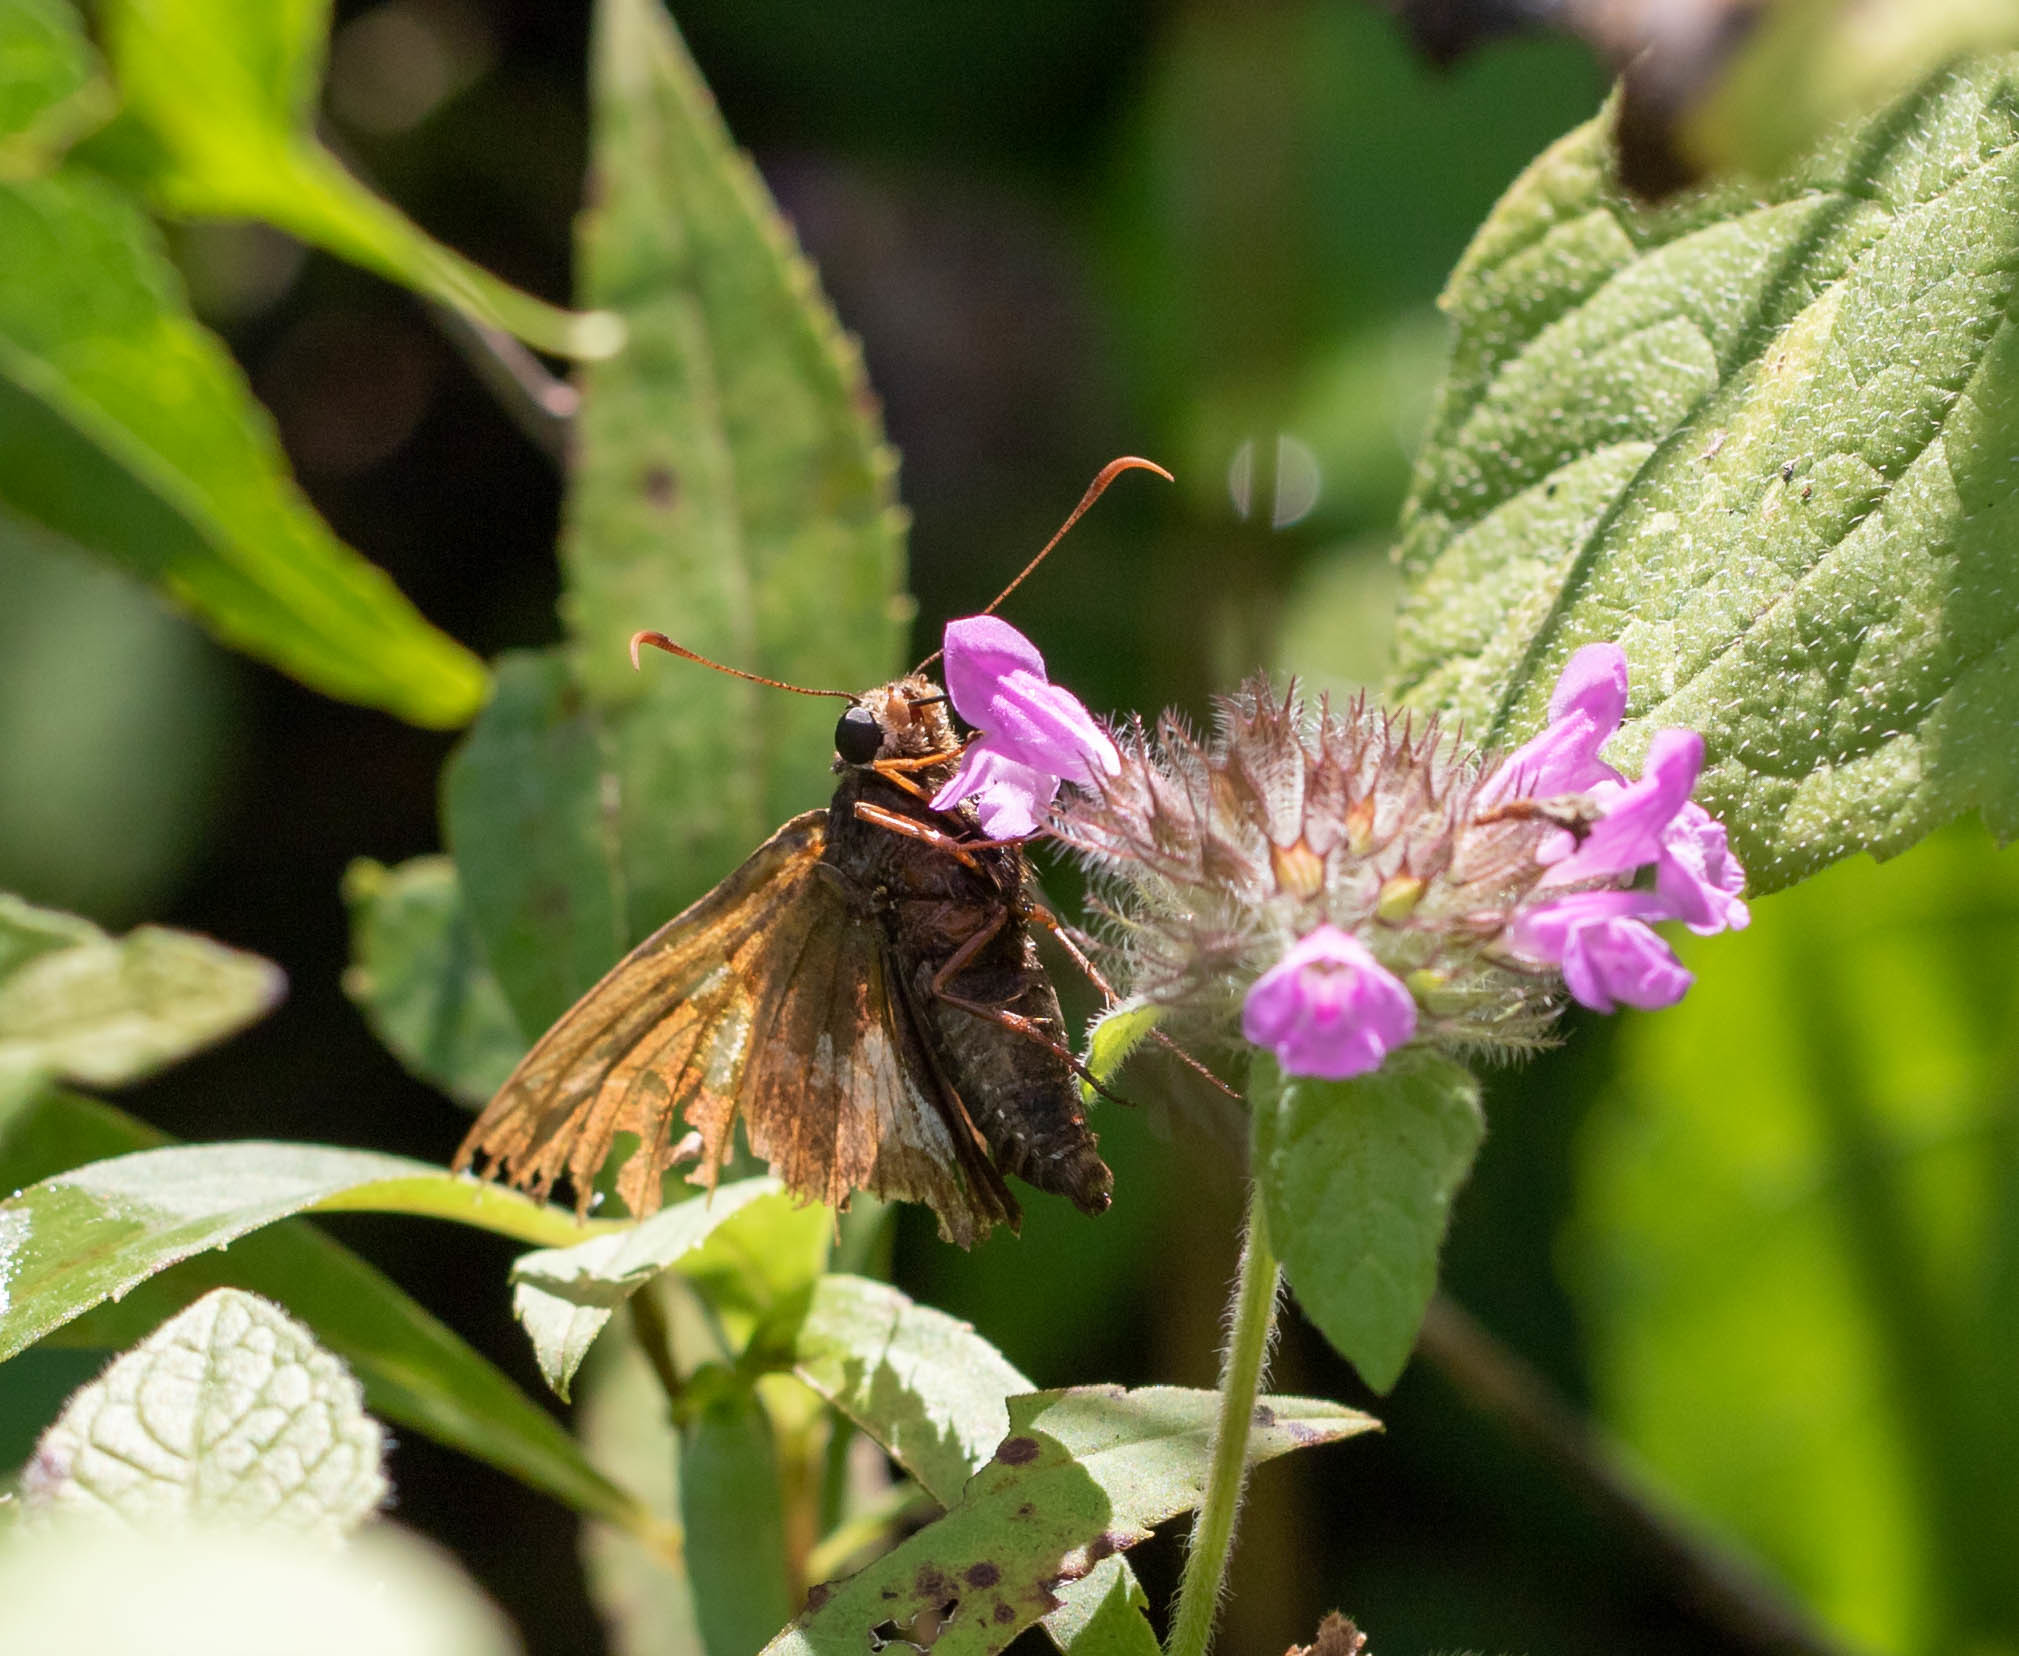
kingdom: Animalia
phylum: Arthropoda
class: Insecta
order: Lepidoptera
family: Hesperiidae
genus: Epargyreus
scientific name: Epargyreus clarus
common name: Silver-spotted skipper
